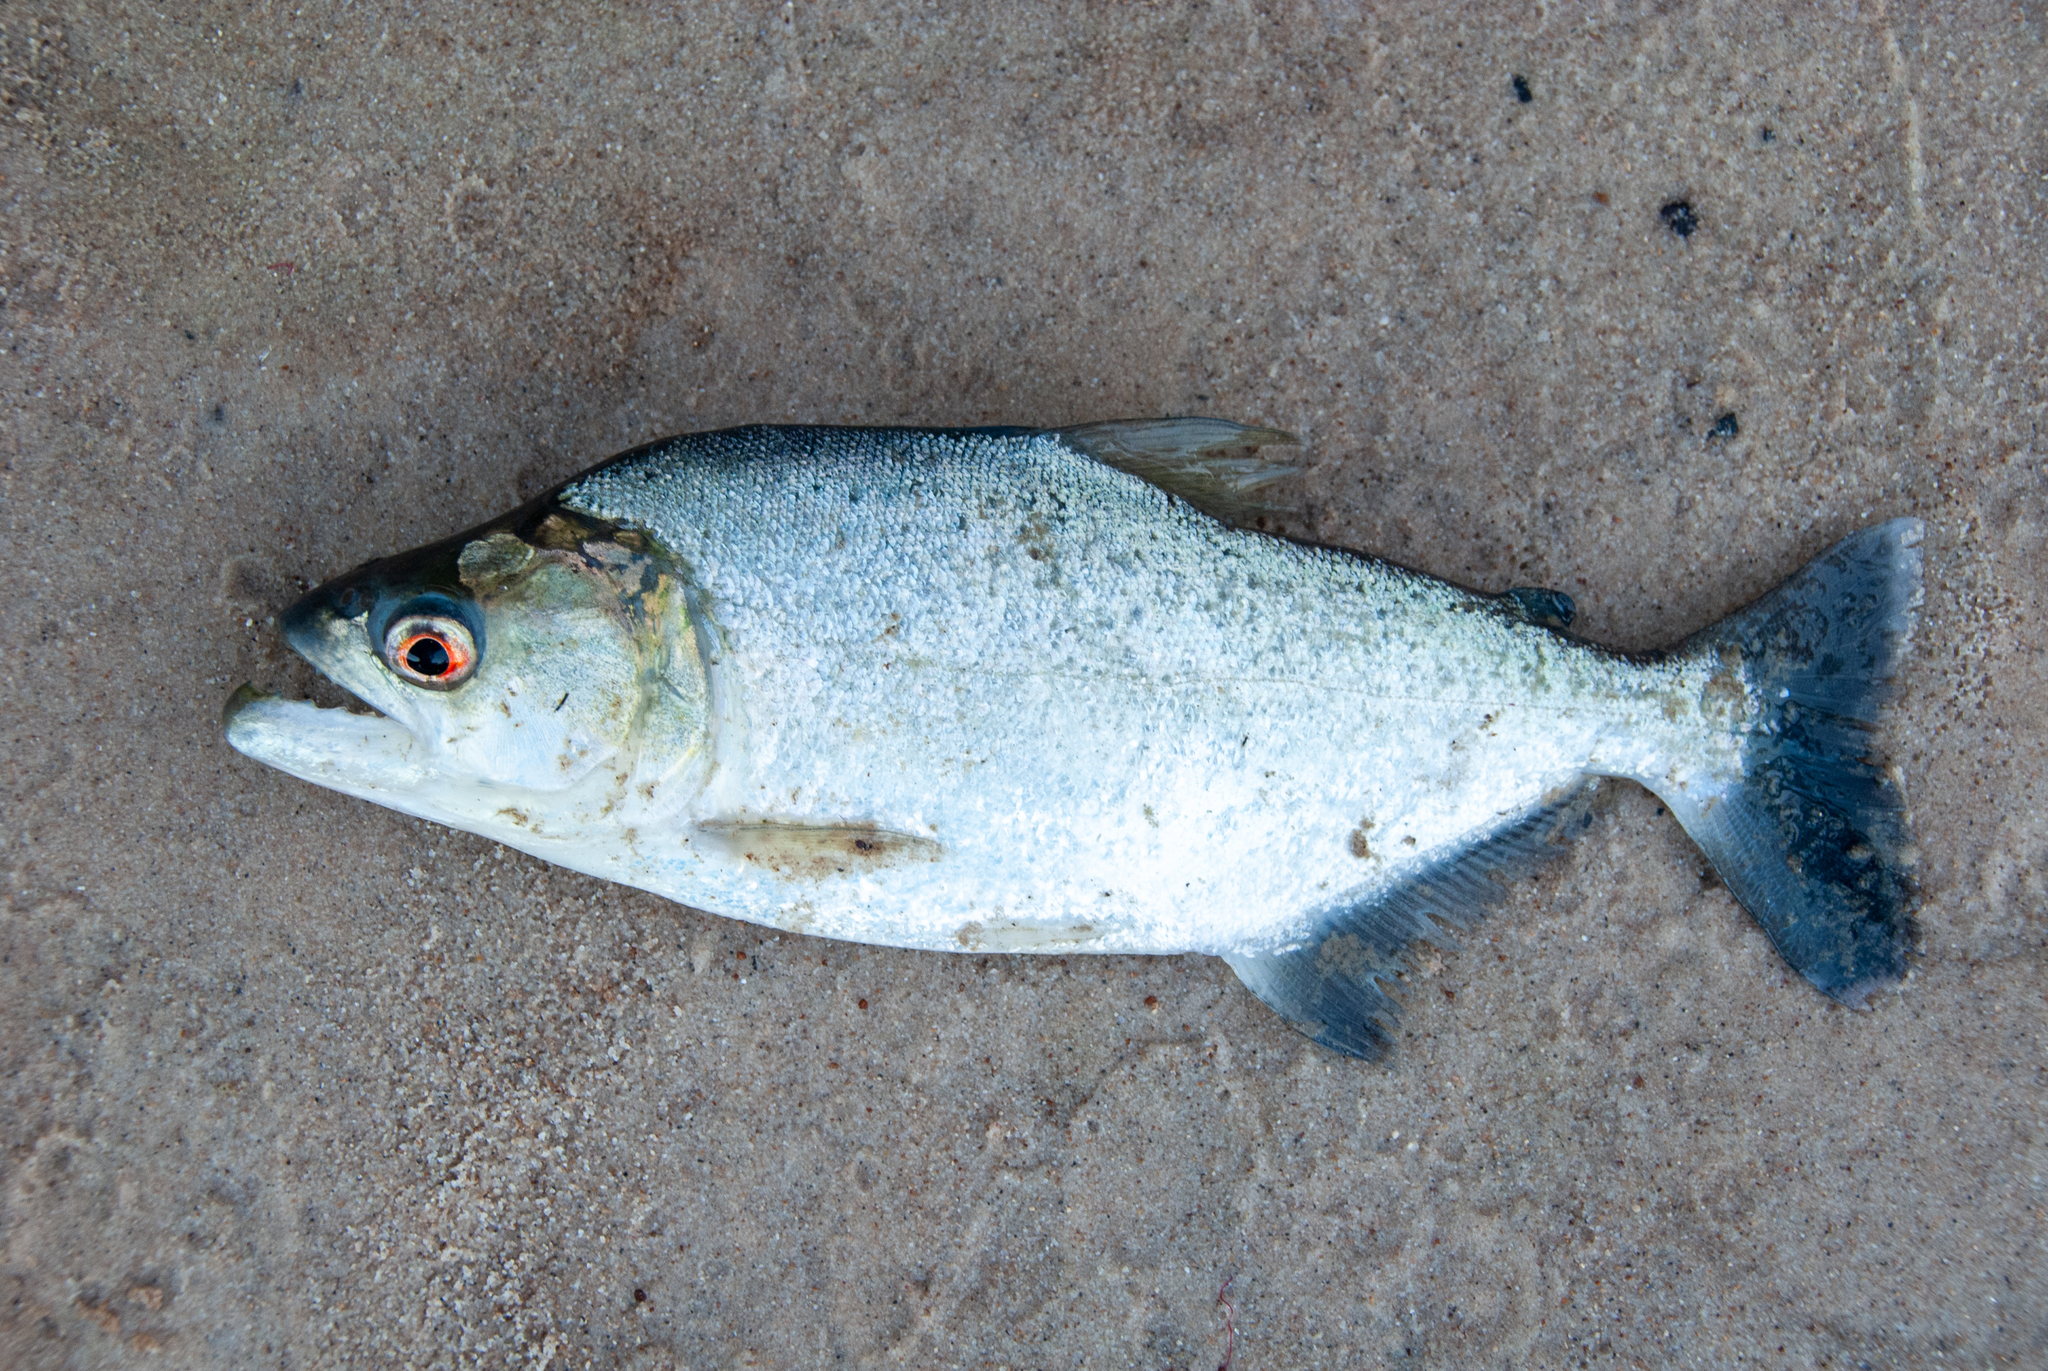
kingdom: Animalia
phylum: Chordata
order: Characiformes
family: Serrasalmidae
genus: Serrasalmus
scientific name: Serrasalmus elongatus
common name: Slender piranha
